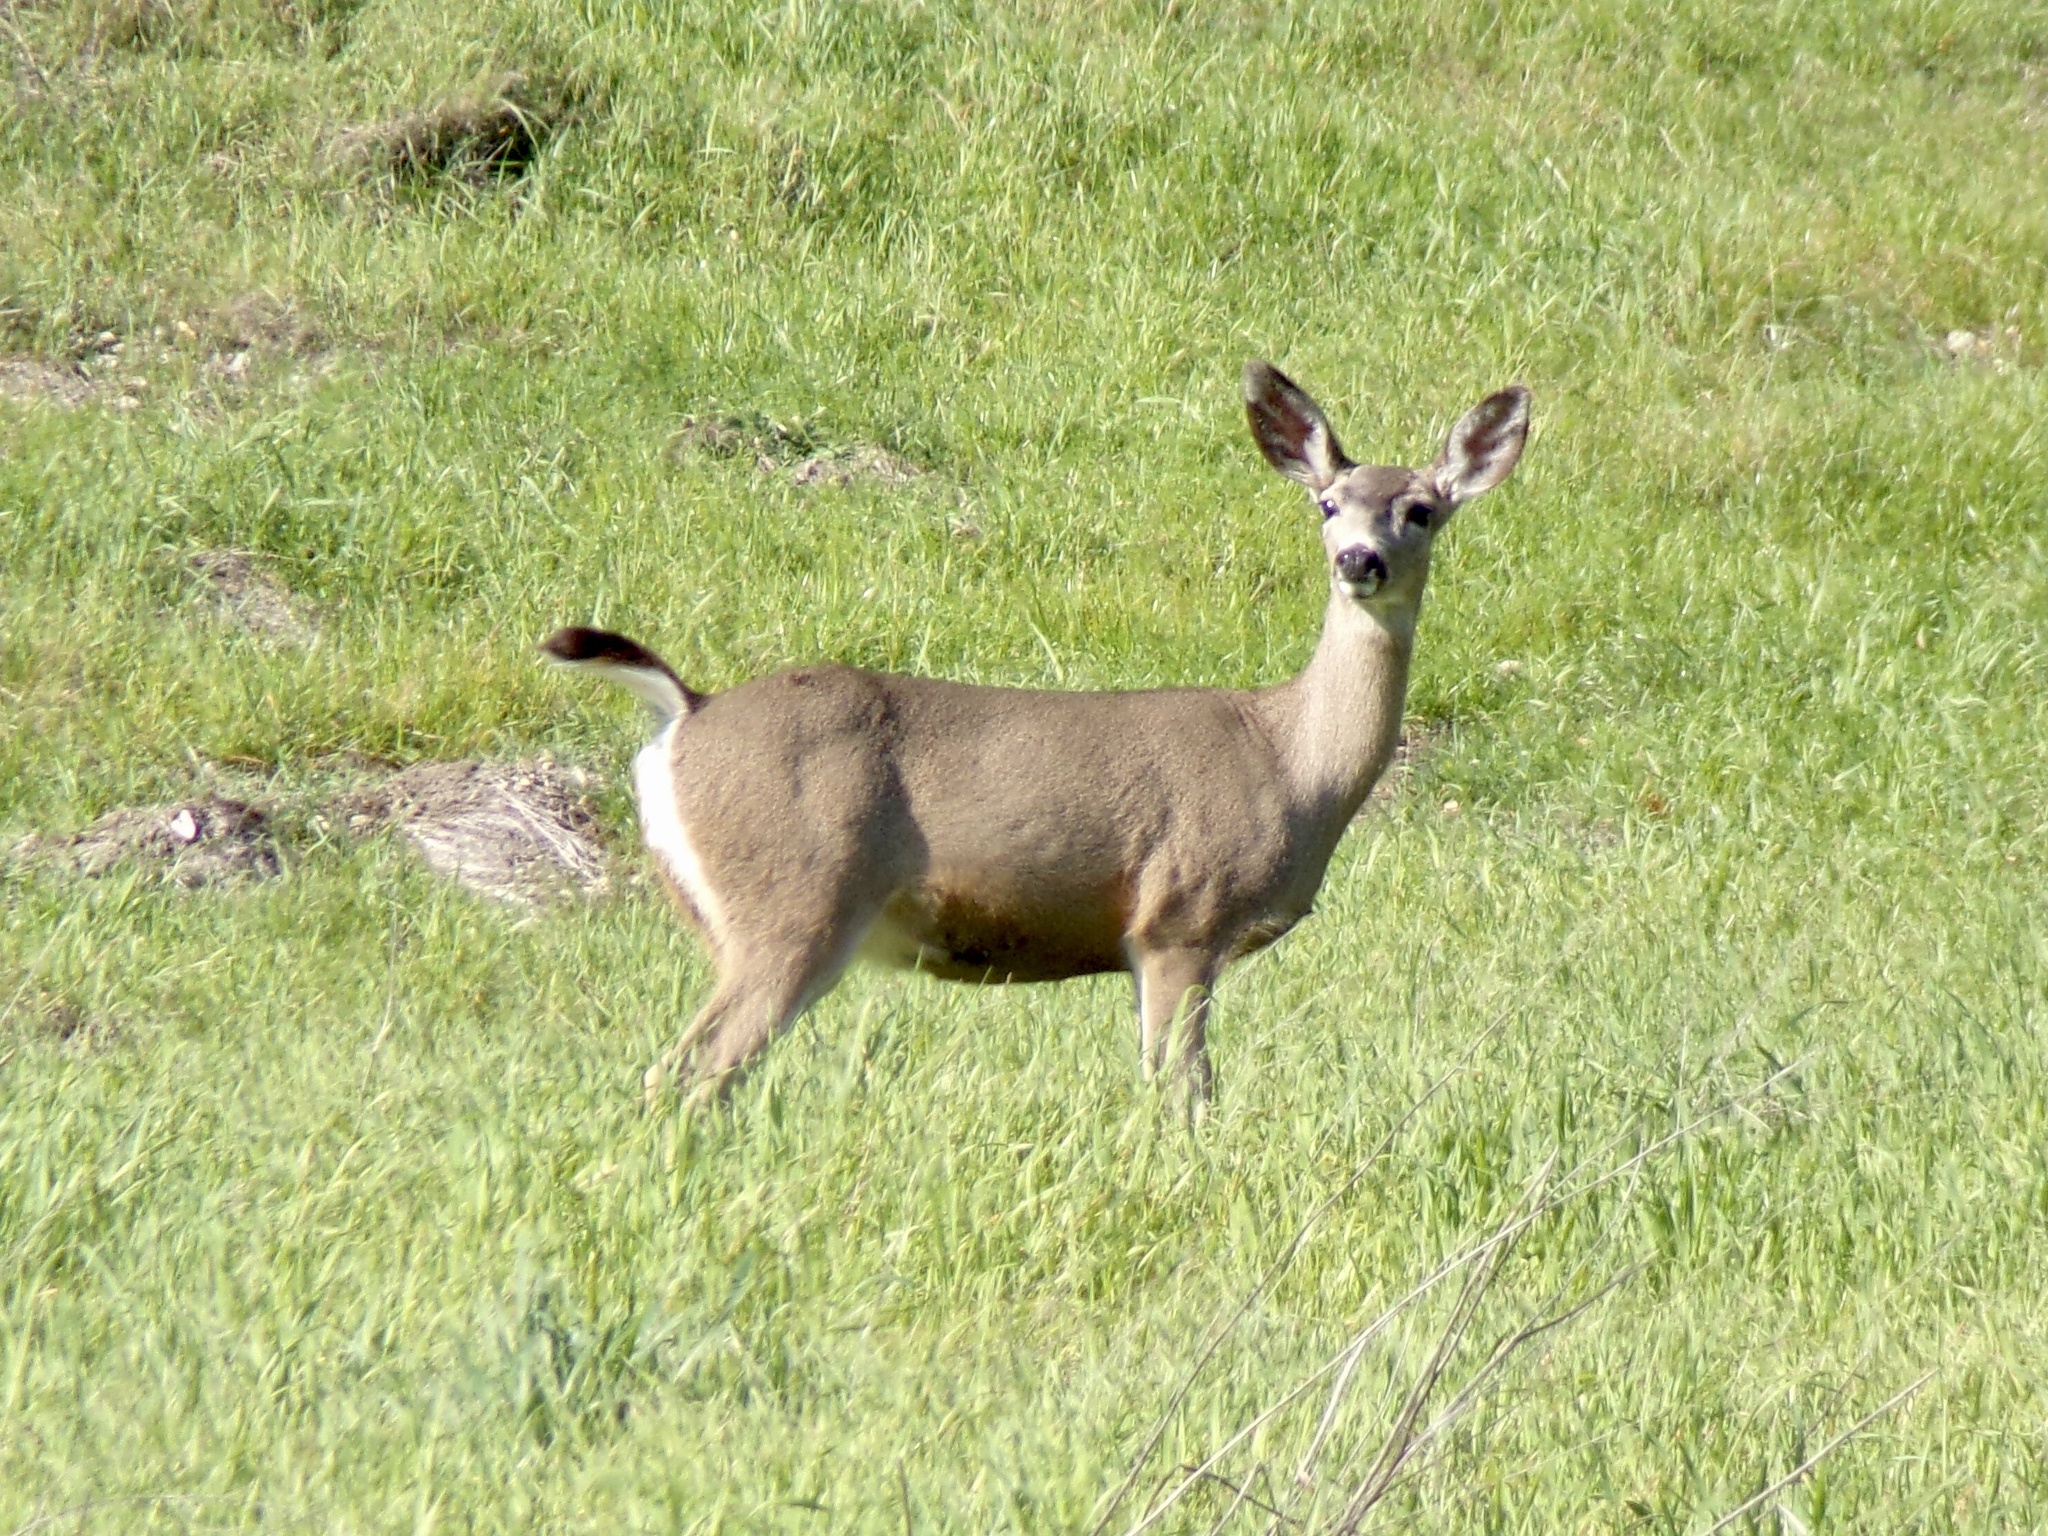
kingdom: Animalia
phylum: Chordata
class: Mammalia
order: Artiodactyla
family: Cervidae
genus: Odocoileus
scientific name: Odocoileus hemionus
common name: Mule deer
